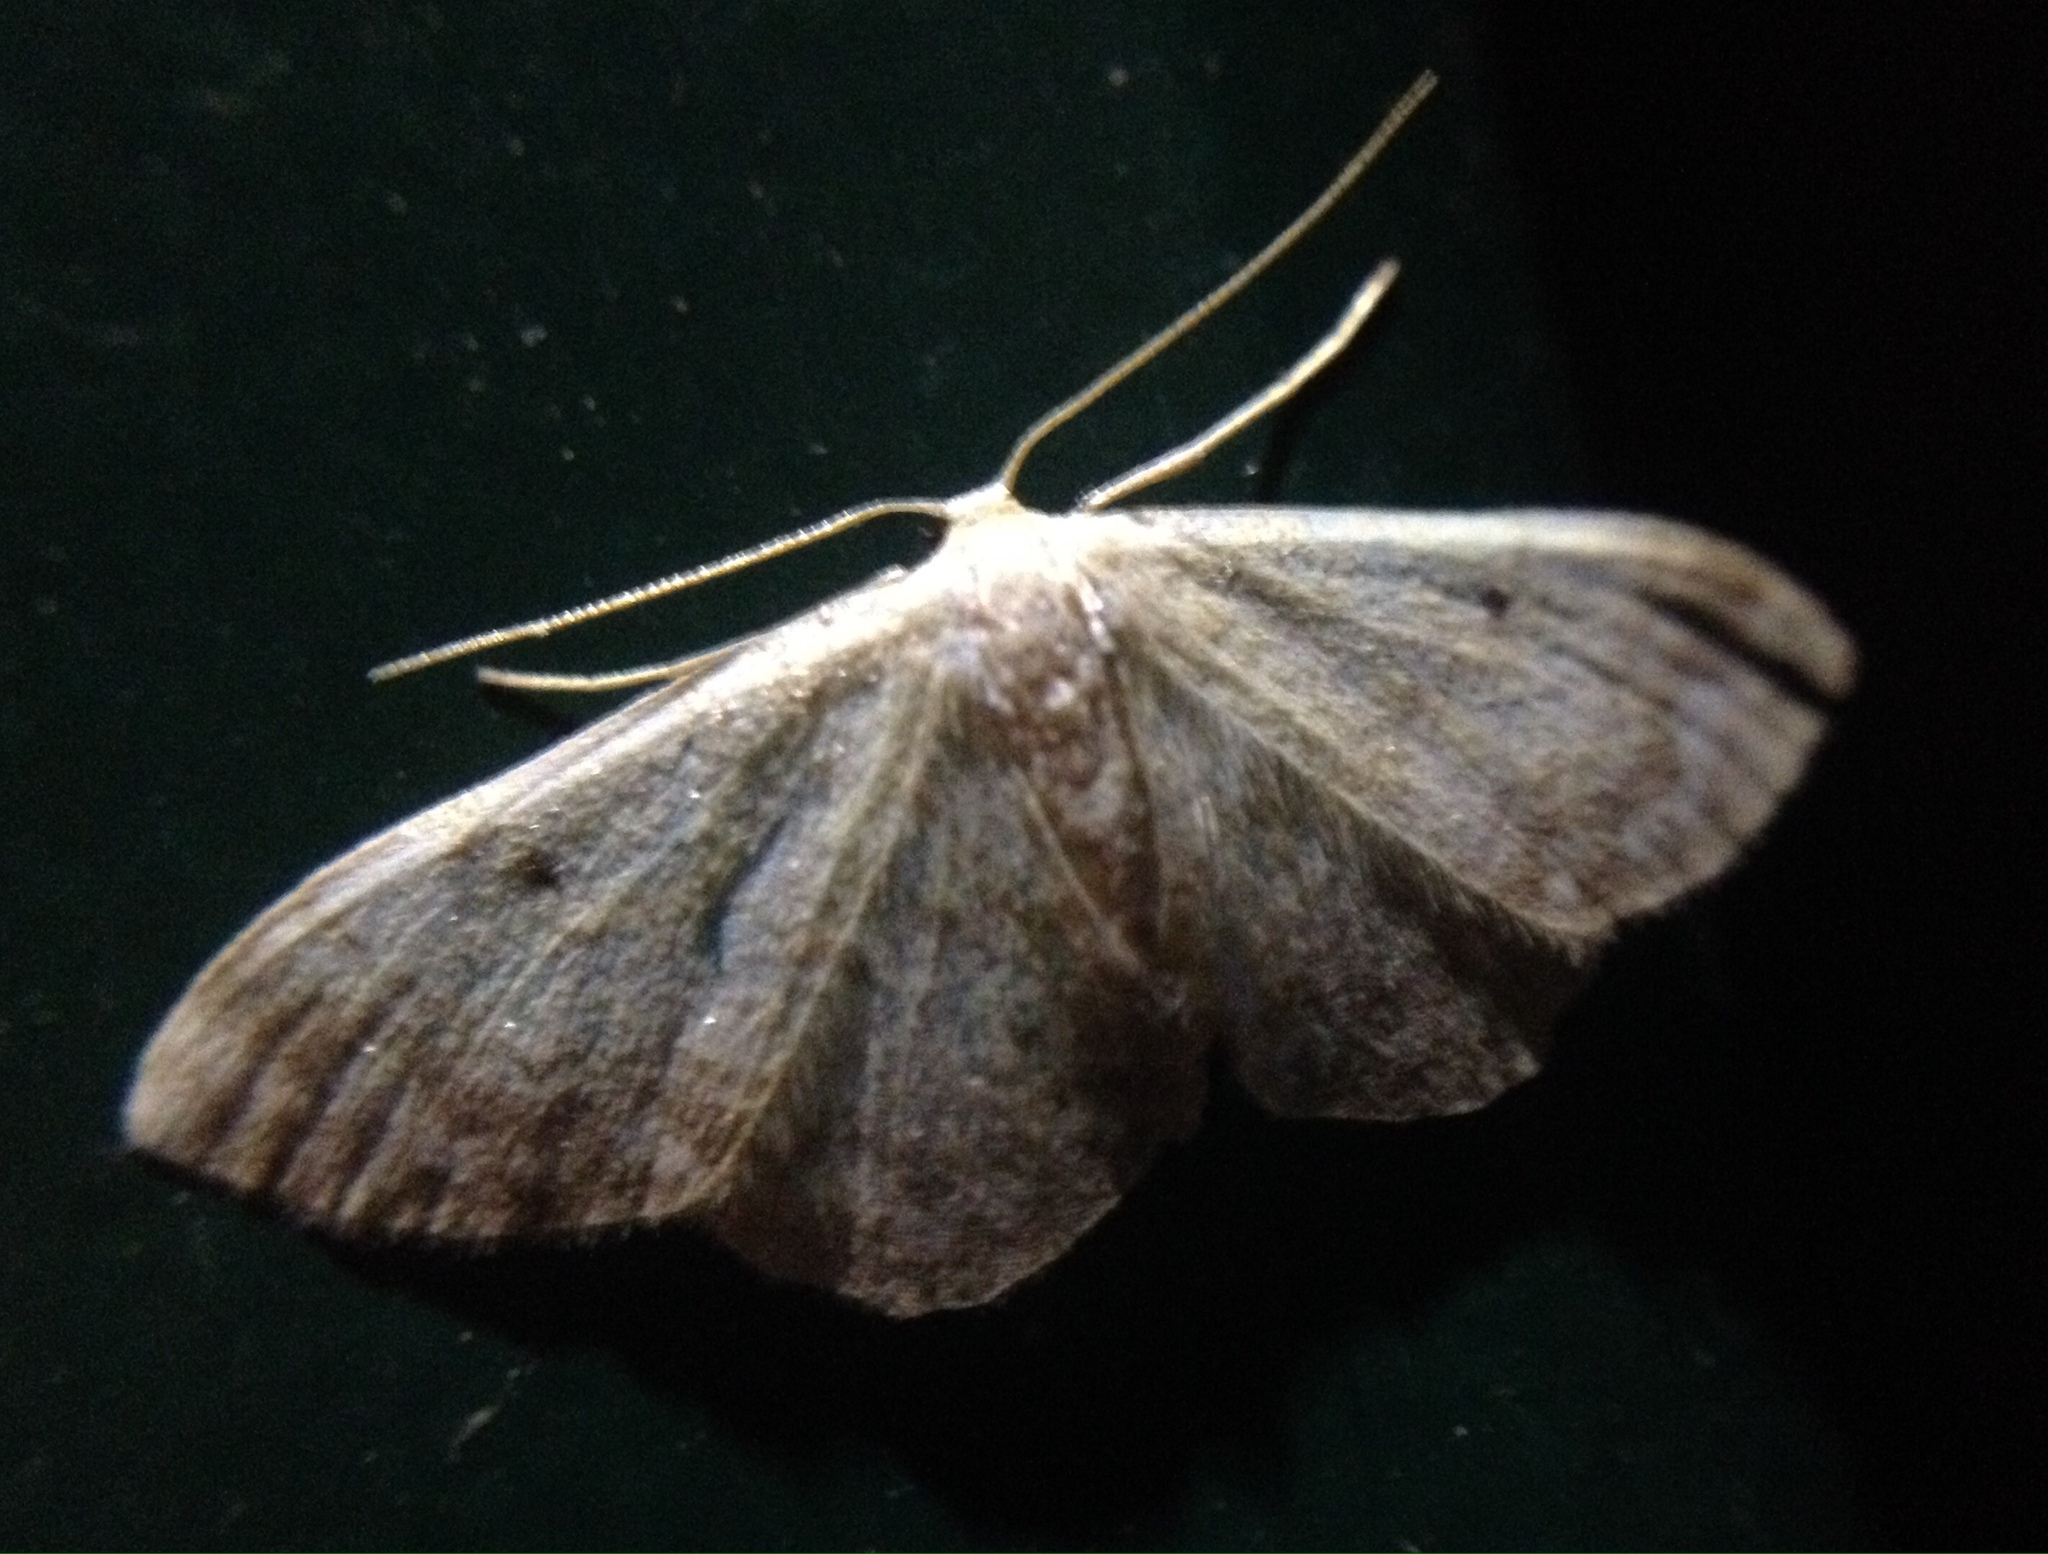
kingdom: Animalia
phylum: Arthropoda
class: Insecta
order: Lepidoptera
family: Geometridae
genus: Idaea
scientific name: Idaea biselata
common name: Small fan-footed wave
